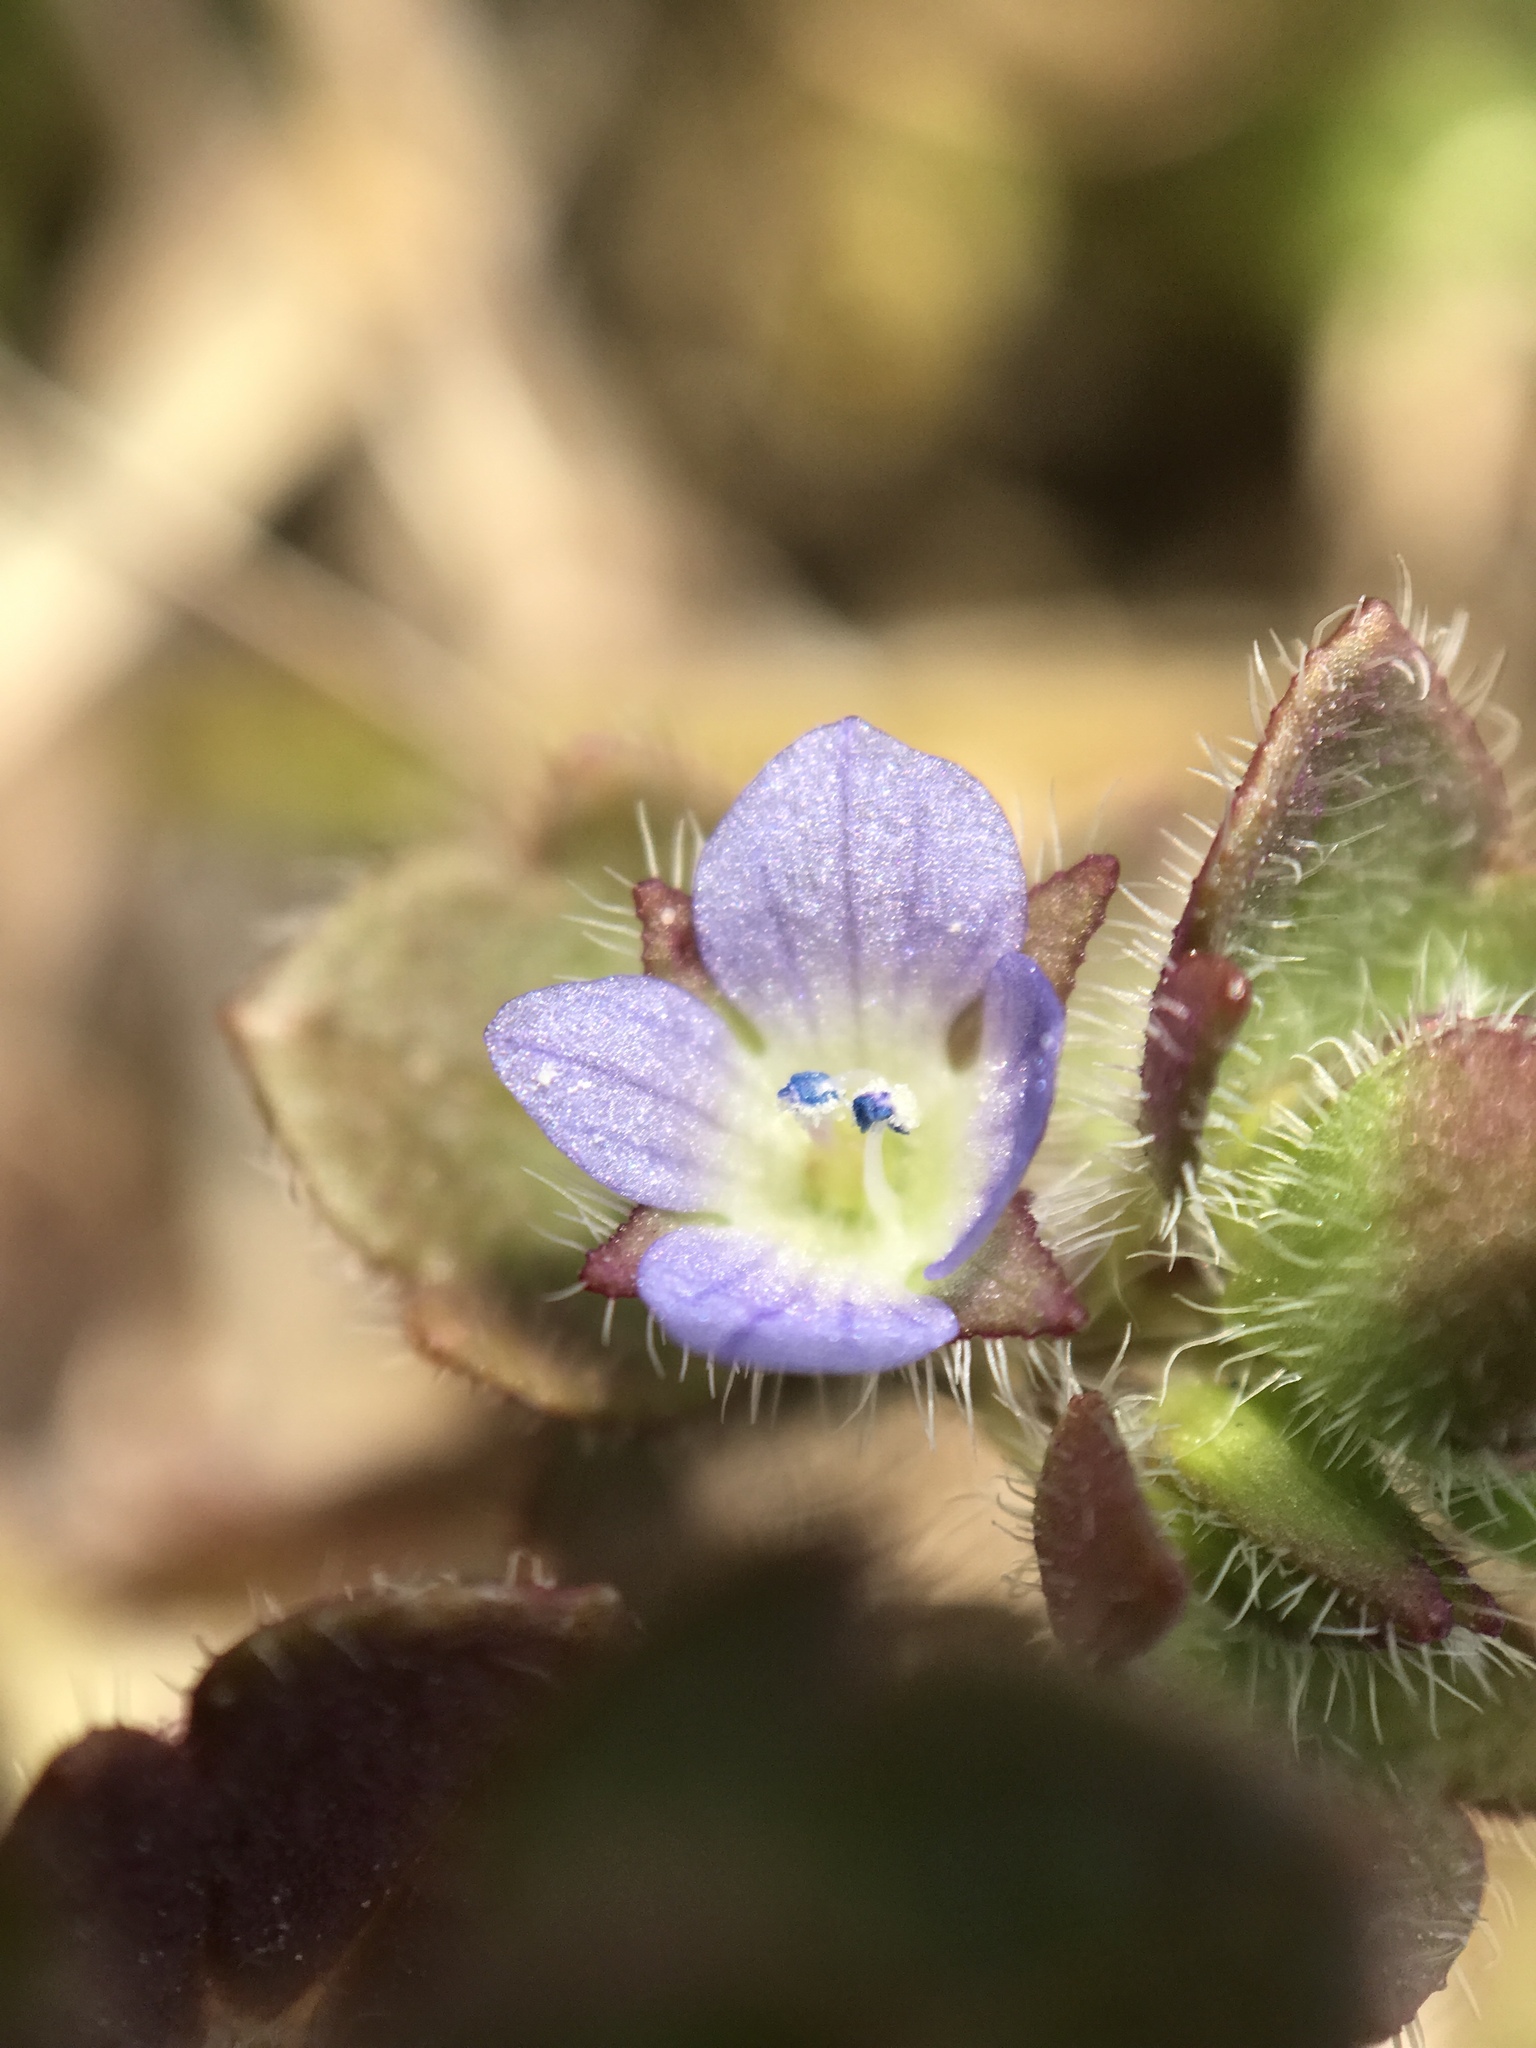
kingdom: Plantae
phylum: Tracheophyta
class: Magnoliopsida
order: Lamiales
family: Plantaginaceae
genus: Veronica
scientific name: Veronica hederifolia
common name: Ivy-leaved speedwell
